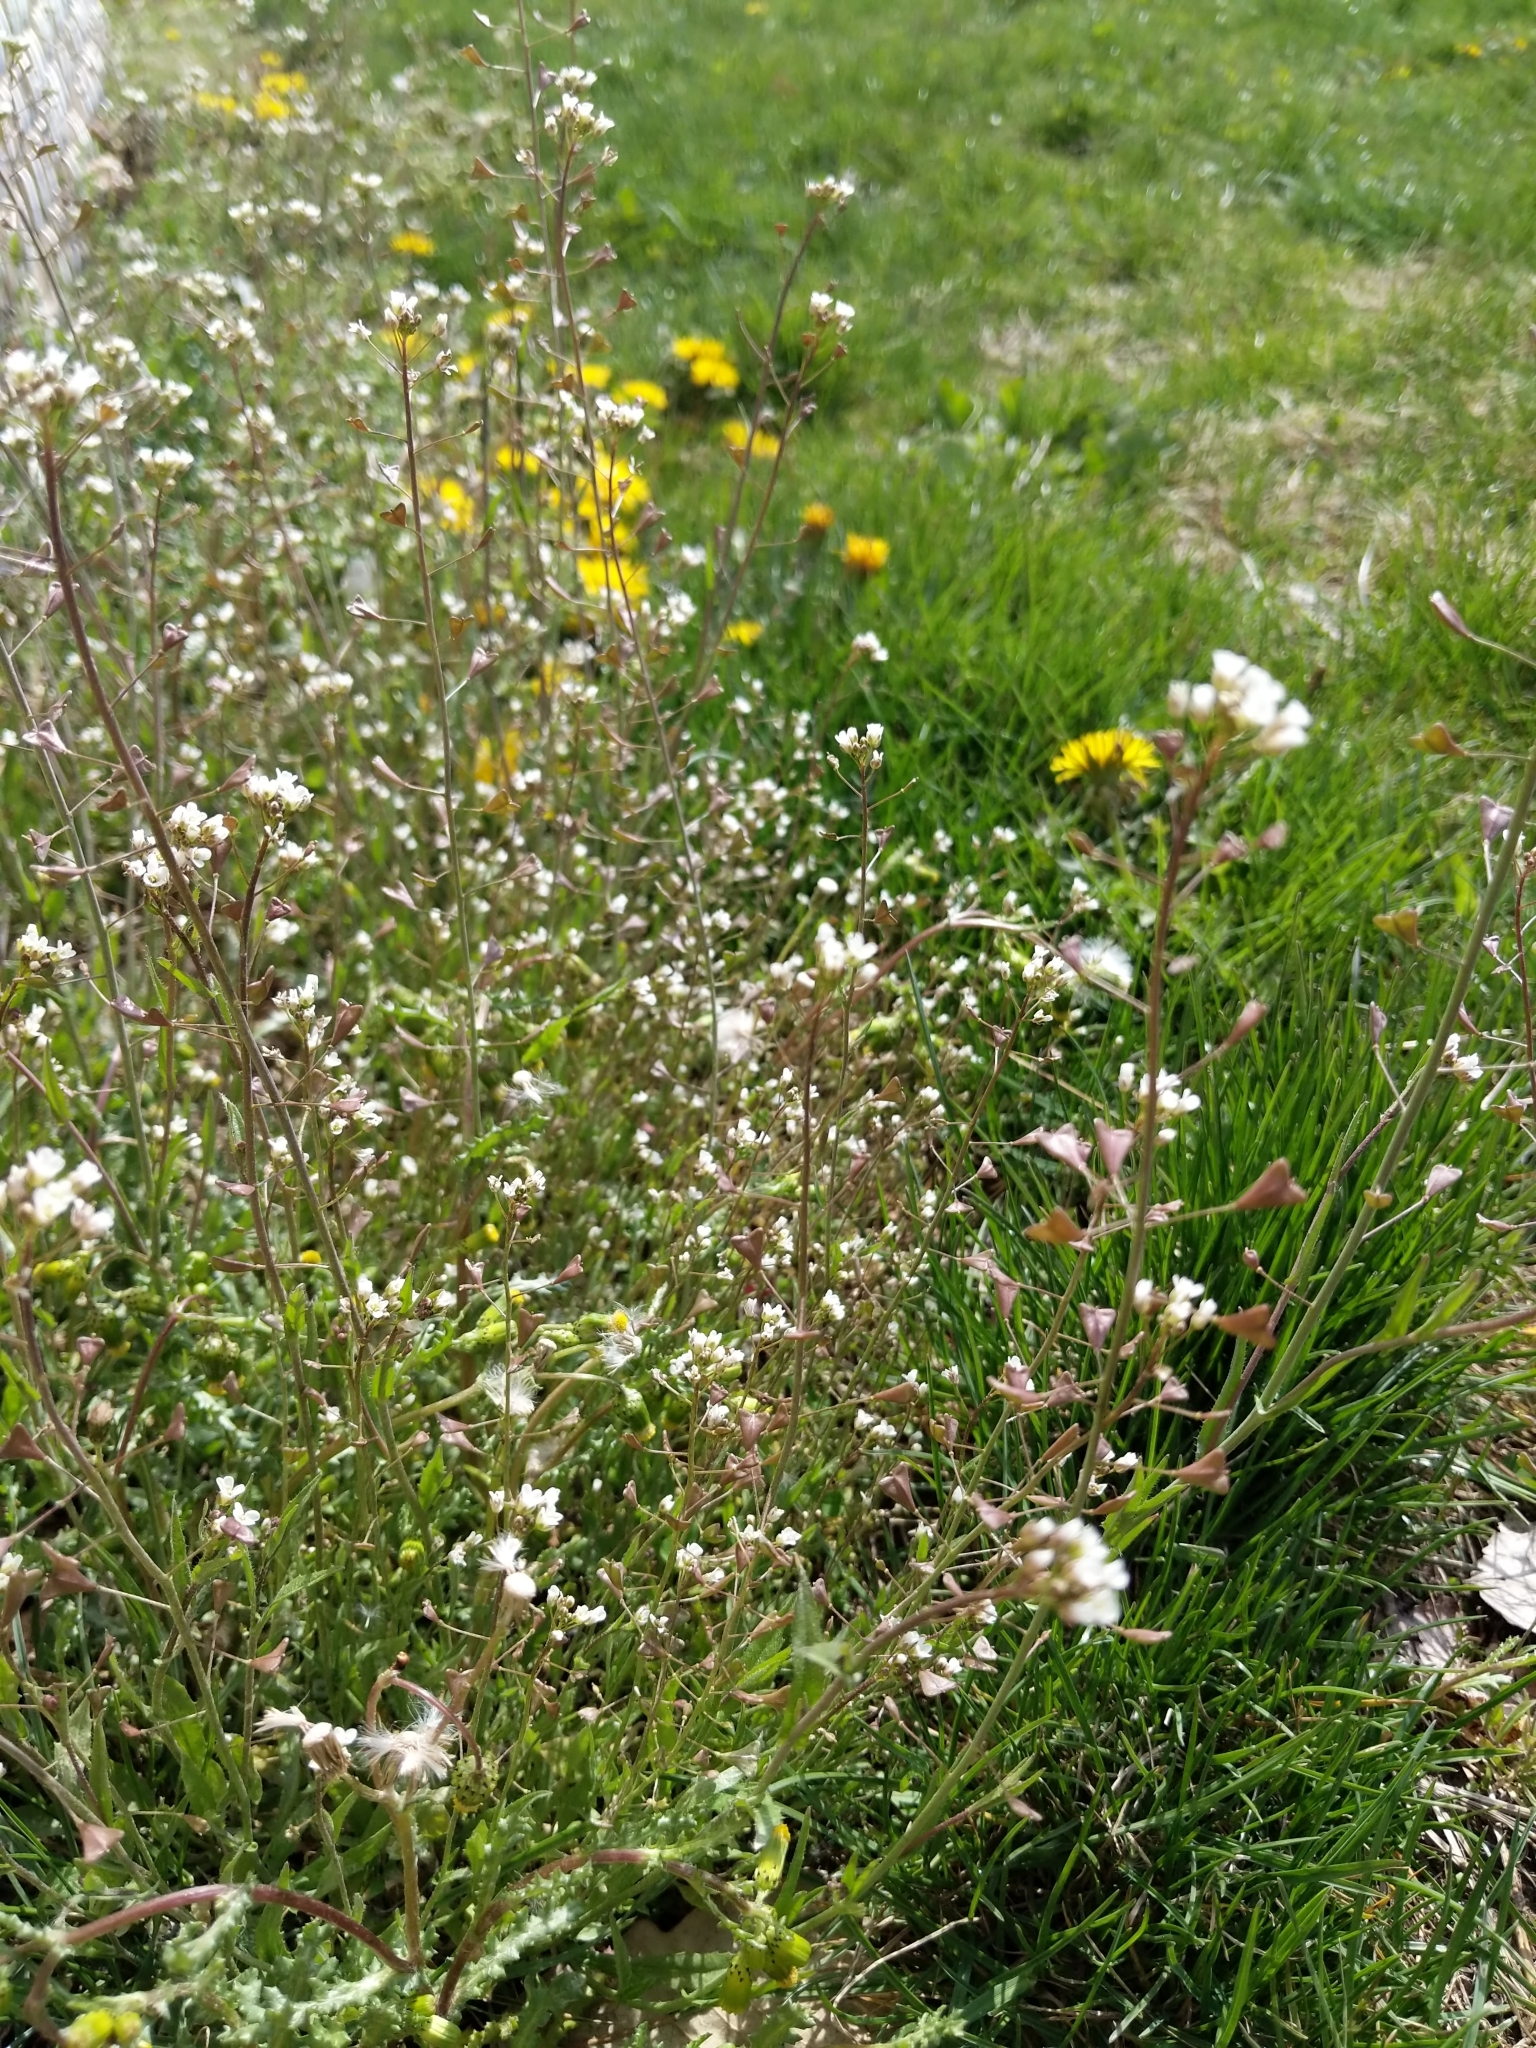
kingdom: Plantae
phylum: Tracheophyta
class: Magnoliopsida
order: Brassicales
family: Brassicaceae
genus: Capsella
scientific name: Capsella bursa-pastoris
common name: Shepherd's purse
